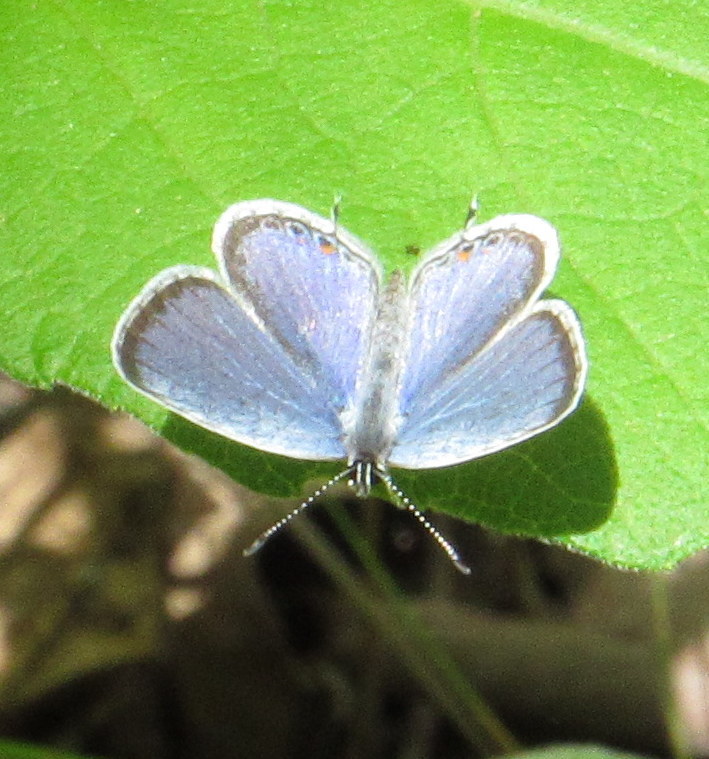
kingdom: Animalia
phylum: Arthropoda
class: Insecta
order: Lepidoptera
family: Lycaenidae
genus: Elkalyce
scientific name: Elkalyce comyntas
